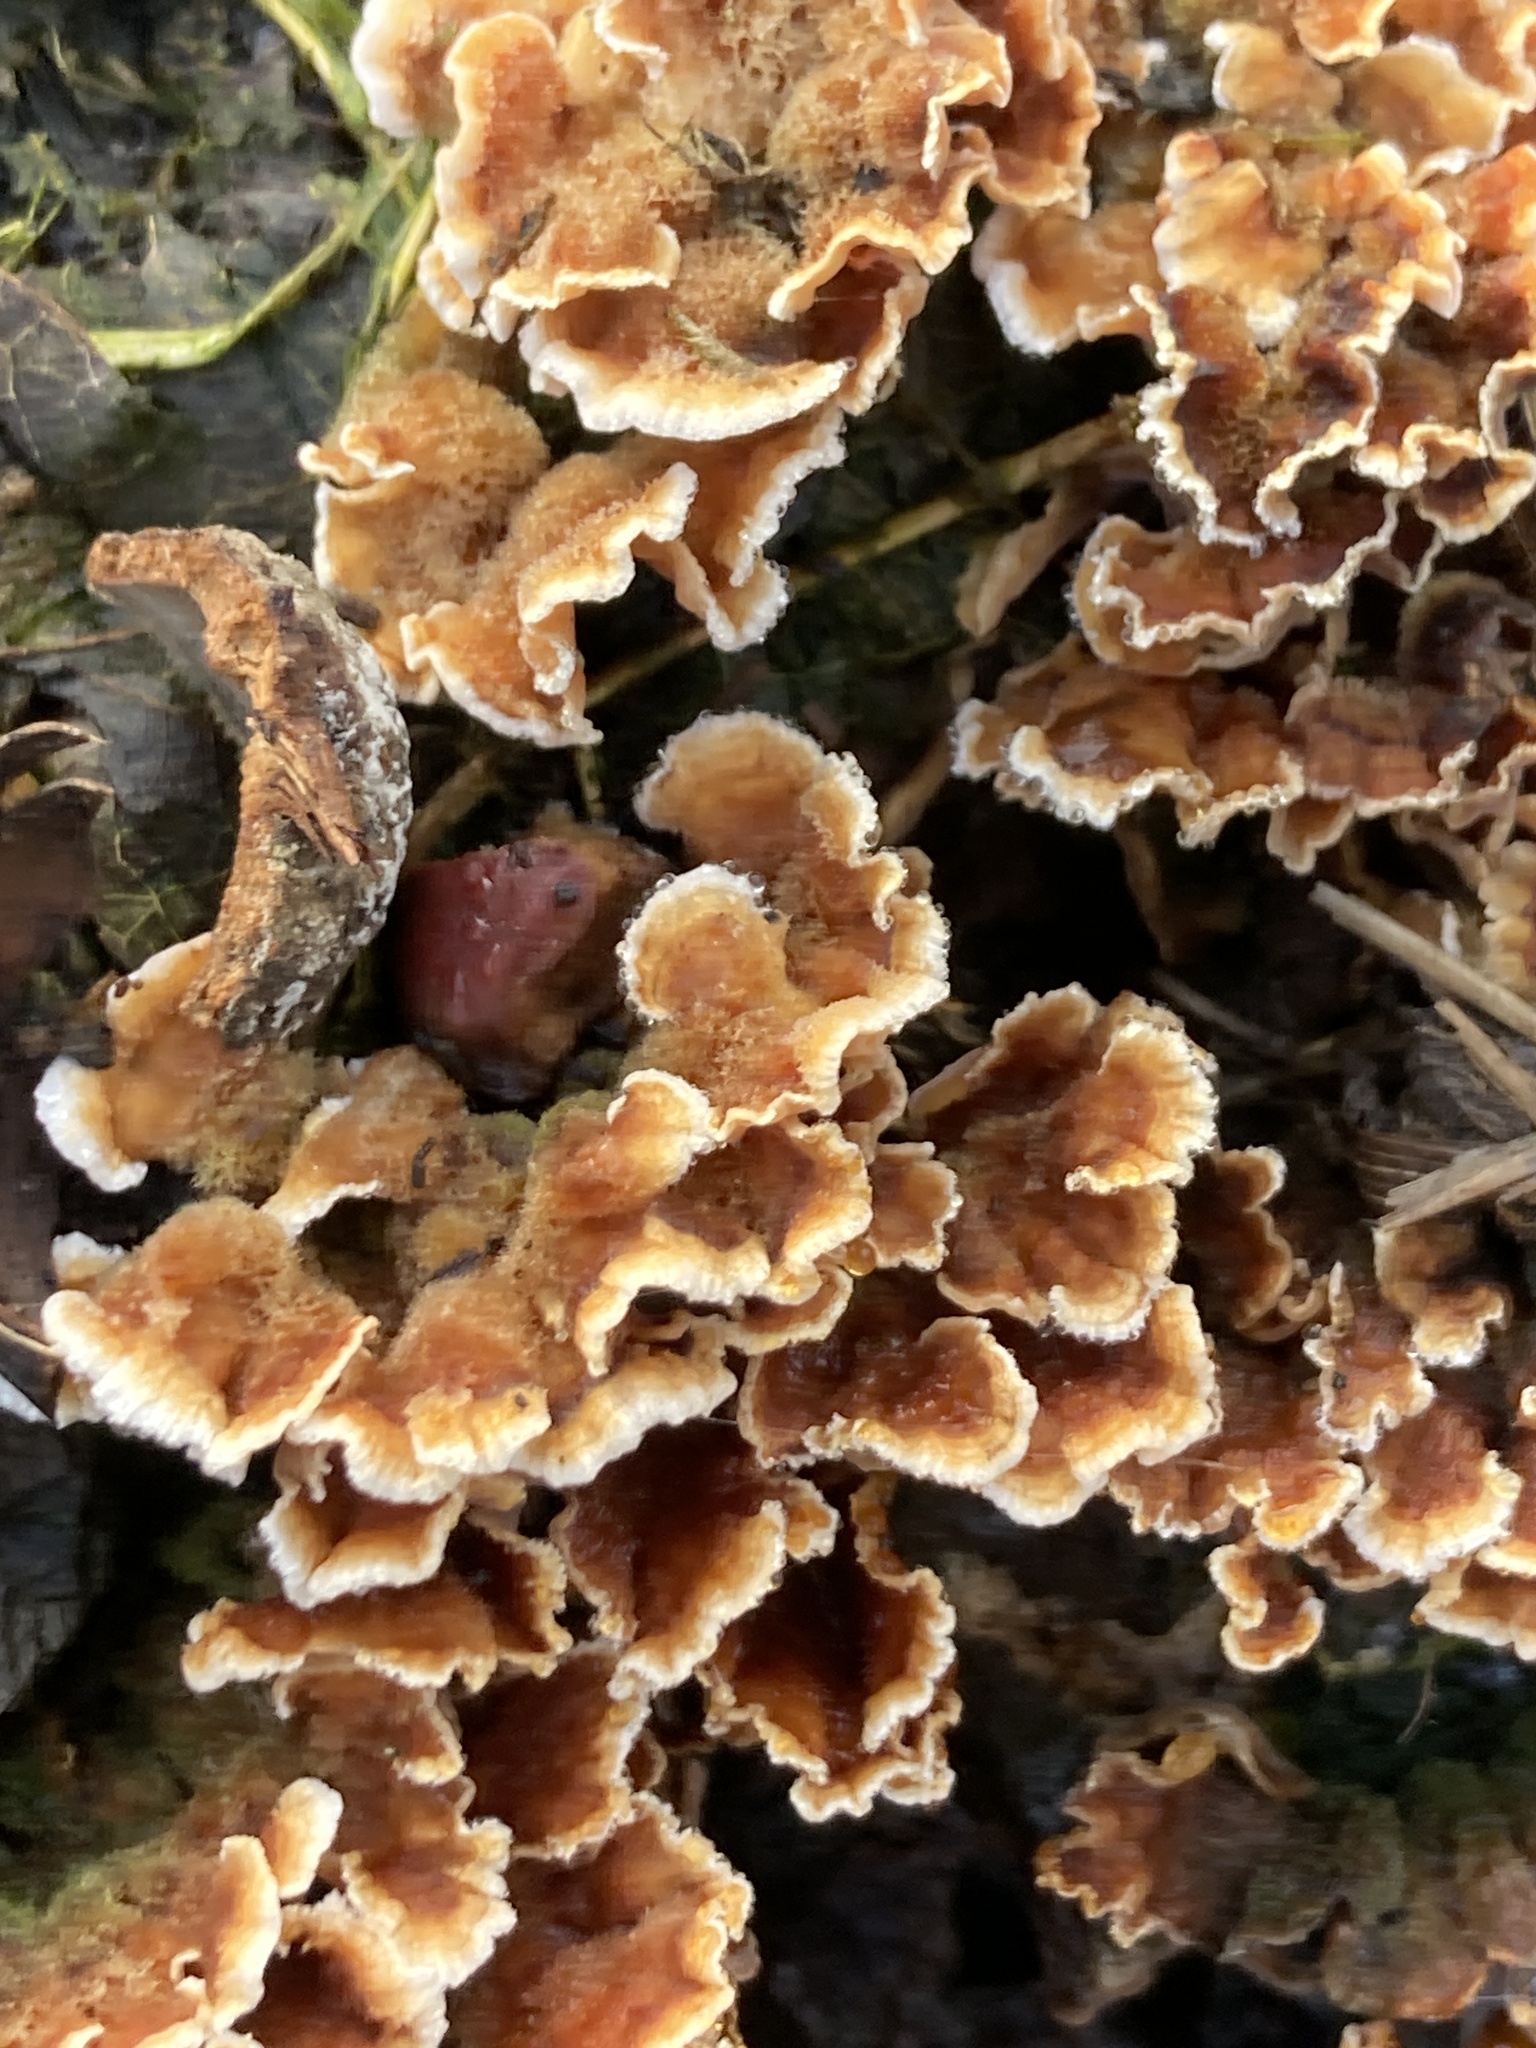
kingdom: Fungi
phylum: Basidiomycota
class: Agaricomycetes
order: Russulales
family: Stereaceae
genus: Stereum
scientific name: Stereum hirsutum
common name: Hairy curtain crust
